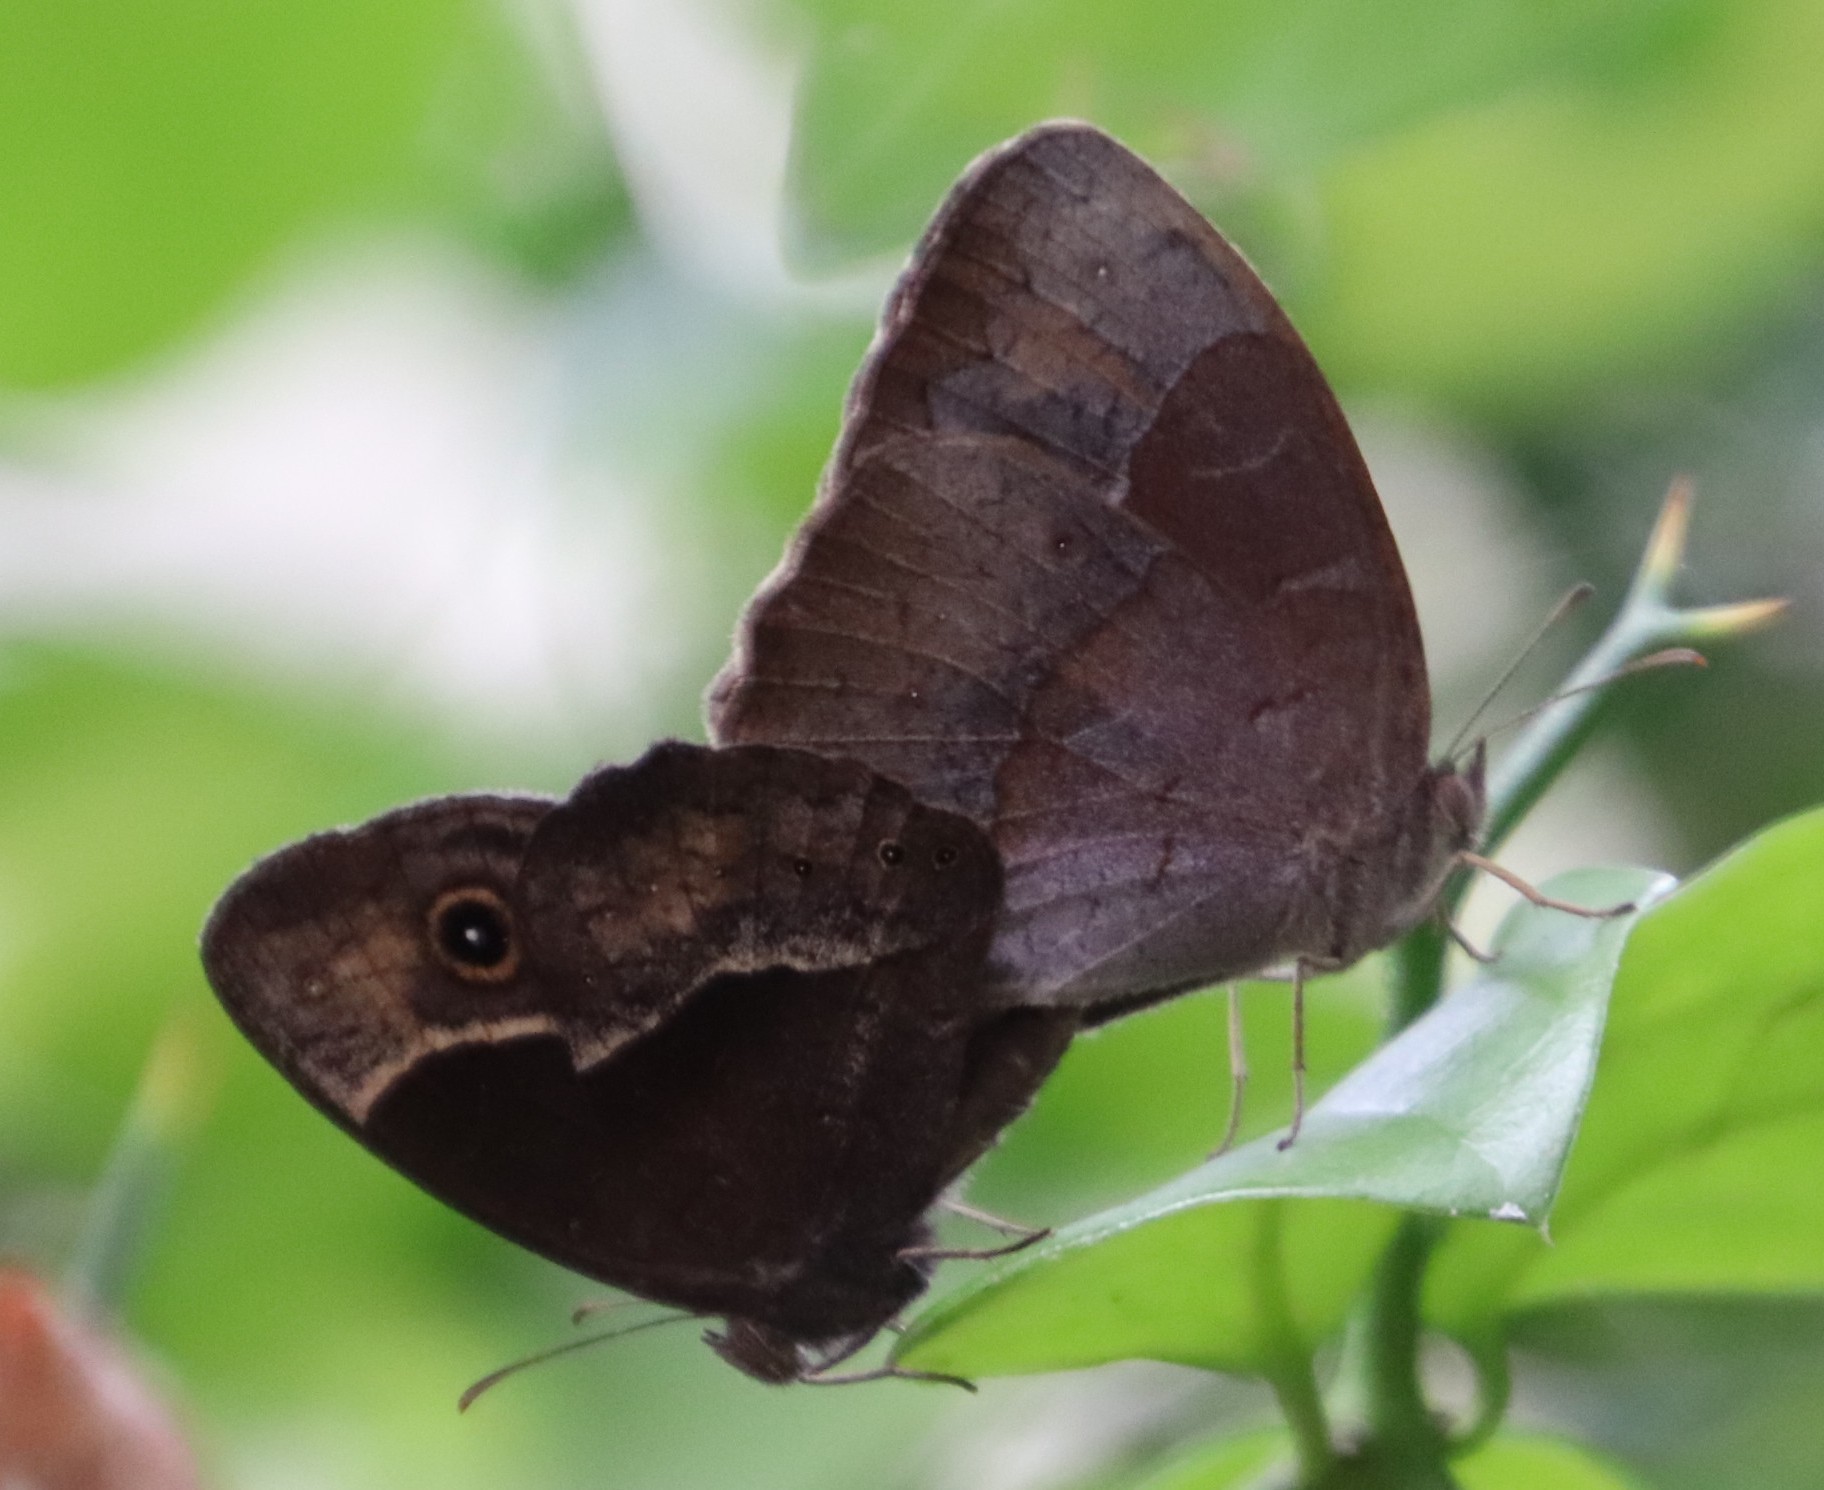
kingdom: Animalia
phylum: Arthropoda
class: Insecta
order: Lepidoptera
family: Nymphalidae
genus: Mycalesis
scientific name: Mycalesis rhacotis
